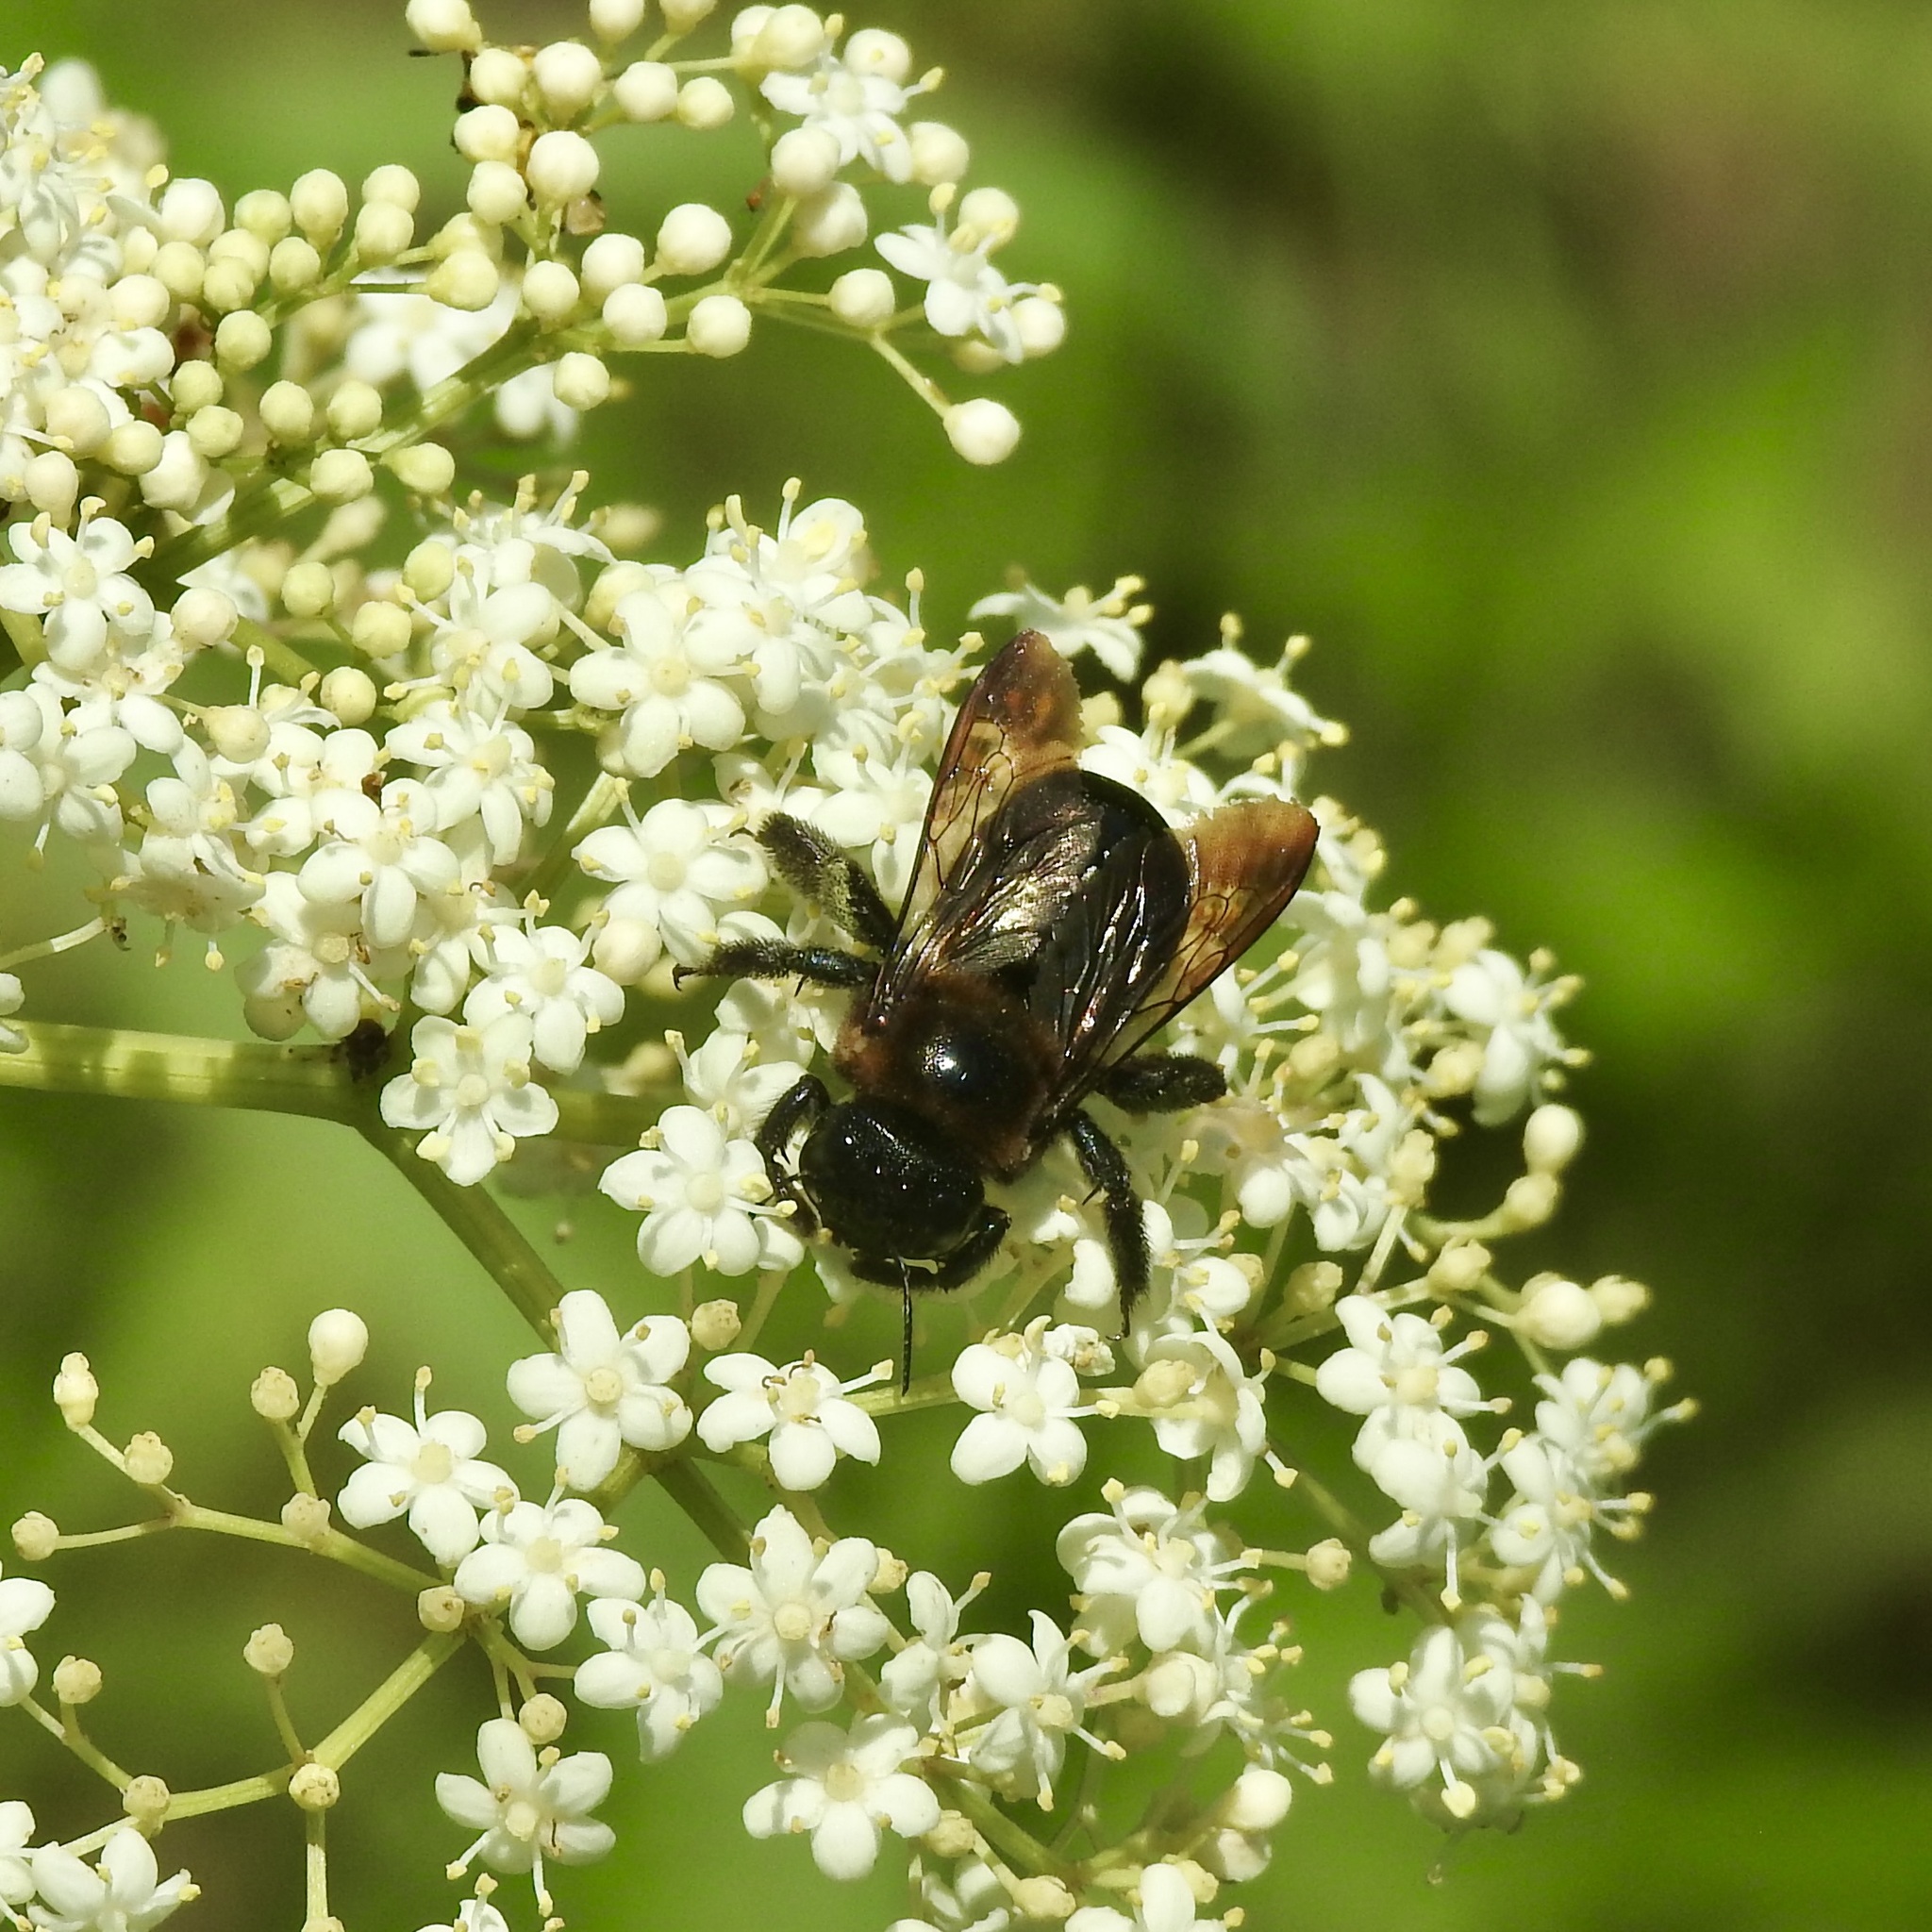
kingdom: Animalia
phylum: Arthropoda
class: Insecta
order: Hymenoptera
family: Apidae
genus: Xylocopa
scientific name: Xylocopa virginica
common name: Carpenter bee
